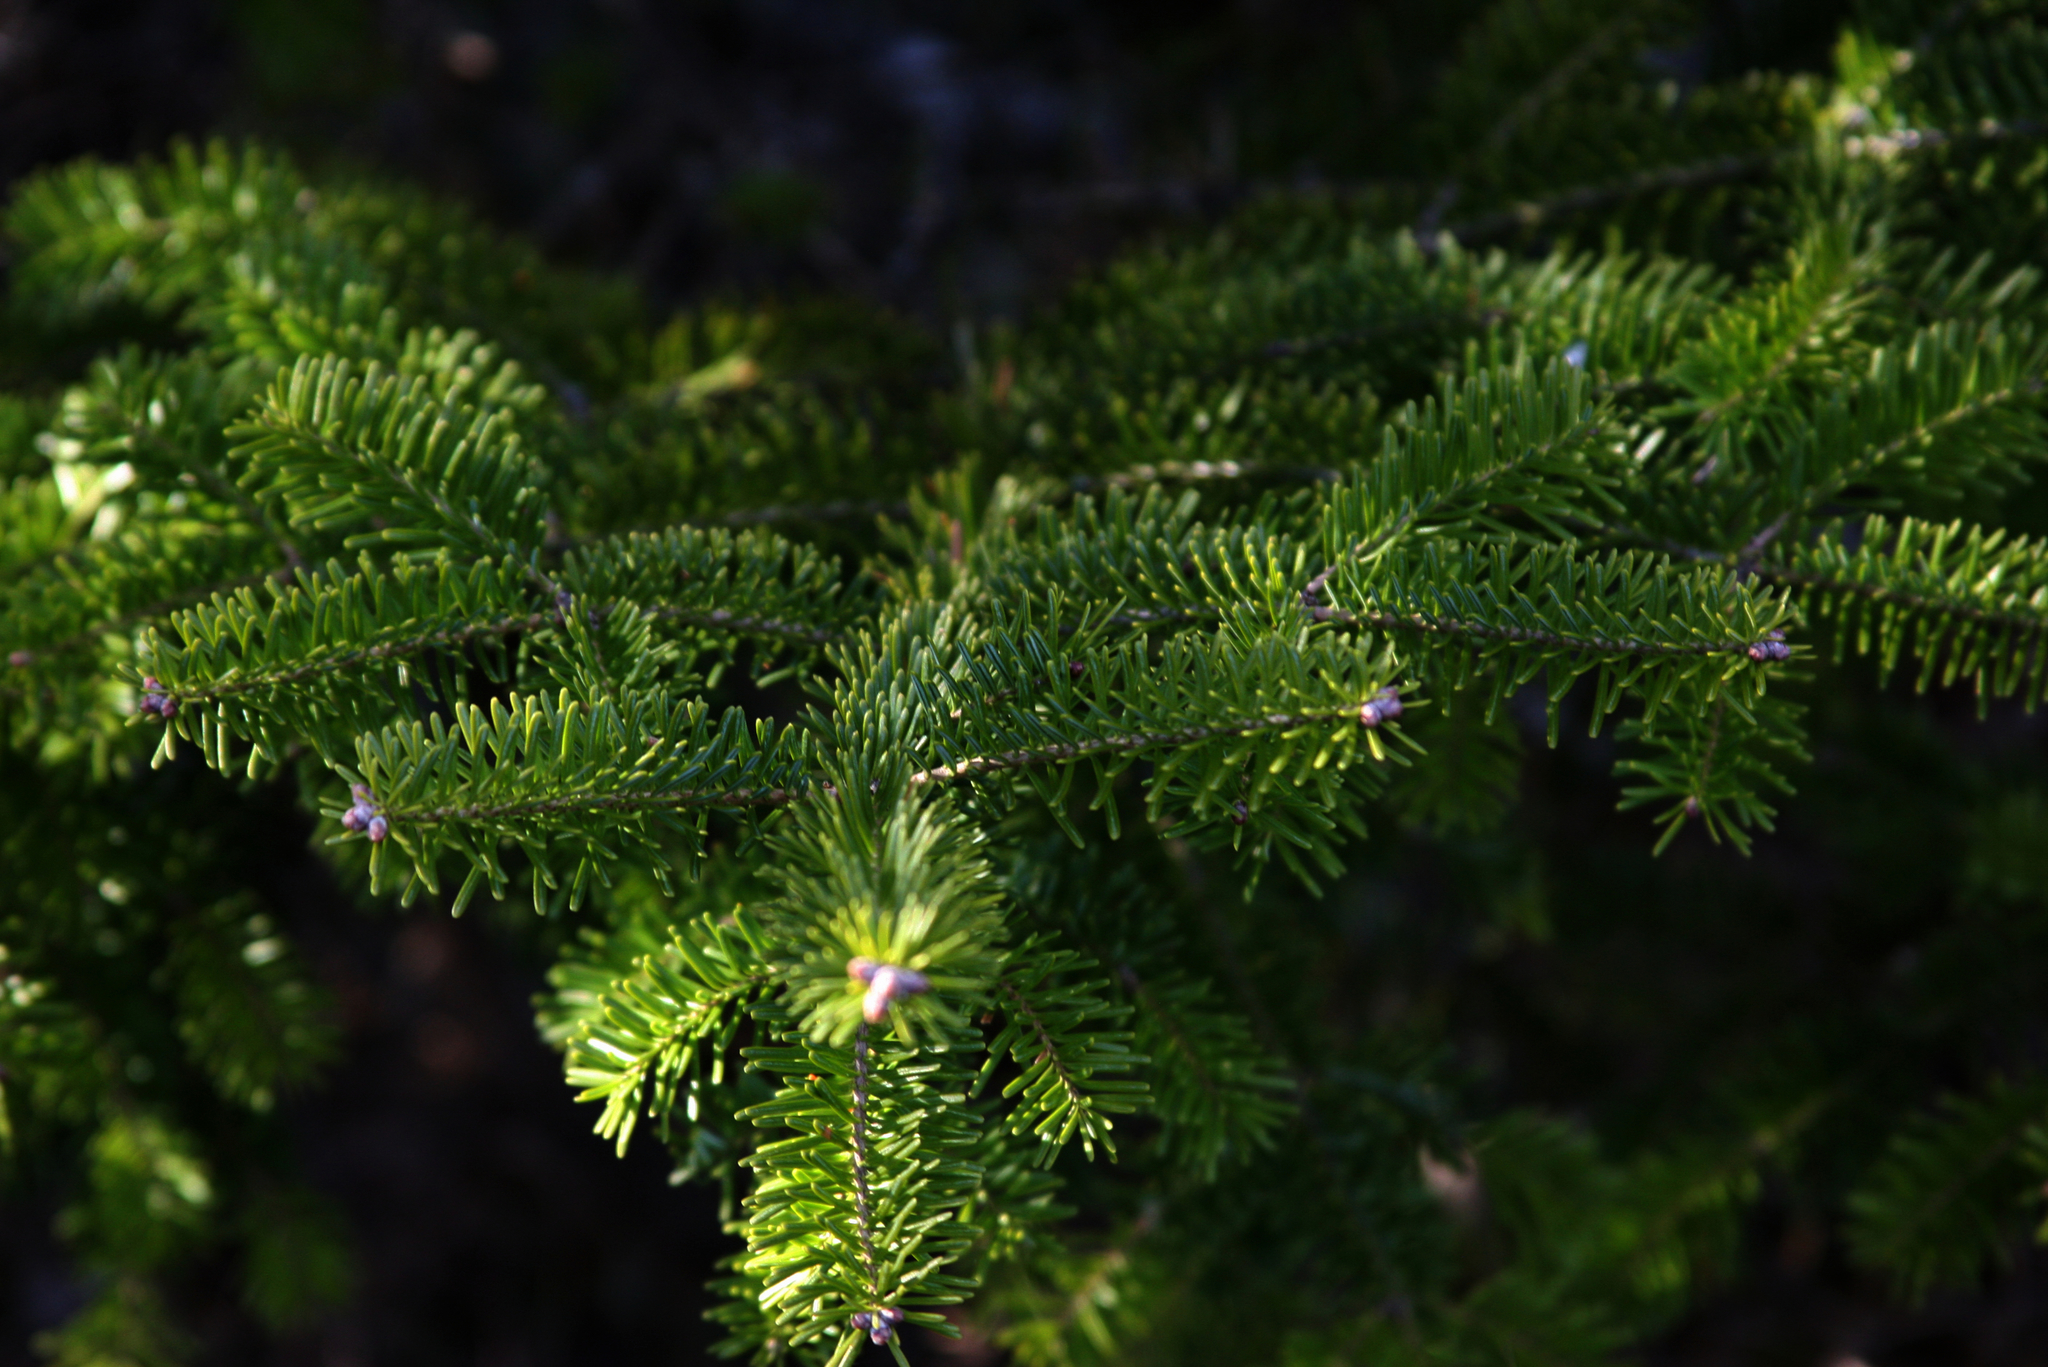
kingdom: Plantae
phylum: Tracheophyta
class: Pinopsida
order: Pinales
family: Pinaceae
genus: Abies
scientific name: Abies balsamea
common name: Balsam fir
